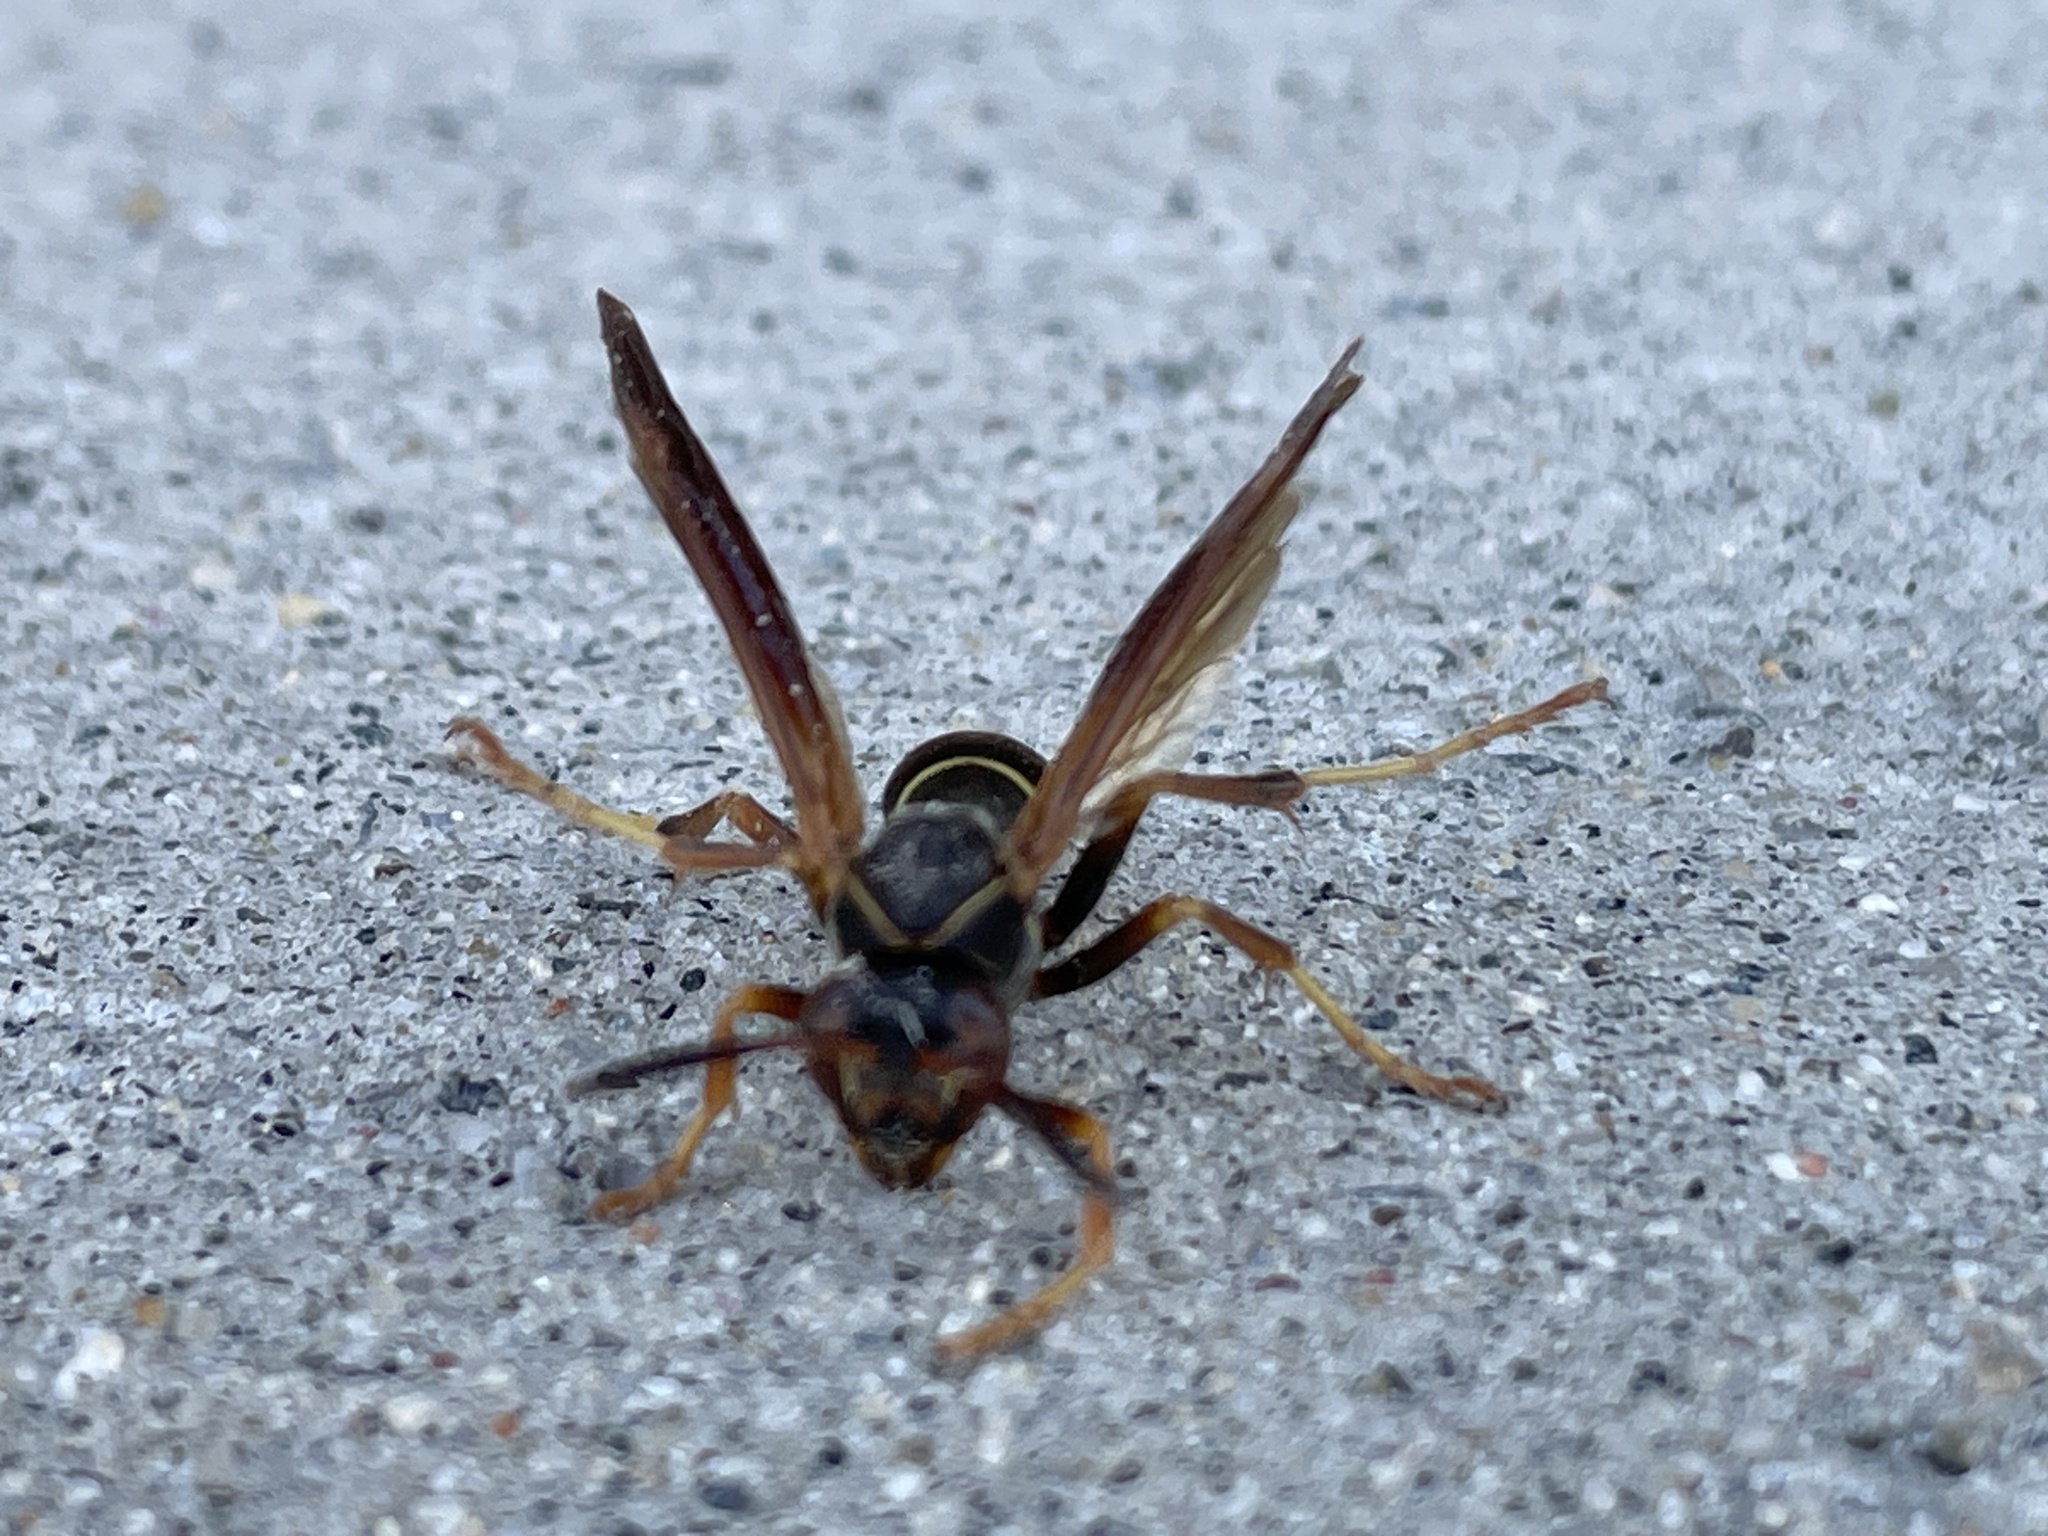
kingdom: Animalia
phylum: Arthropoda
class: Insecta
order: Hymenoptera
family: Eumenidae
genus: Polistes
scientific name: Polistes fuscatus
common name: Dark paper wasp
